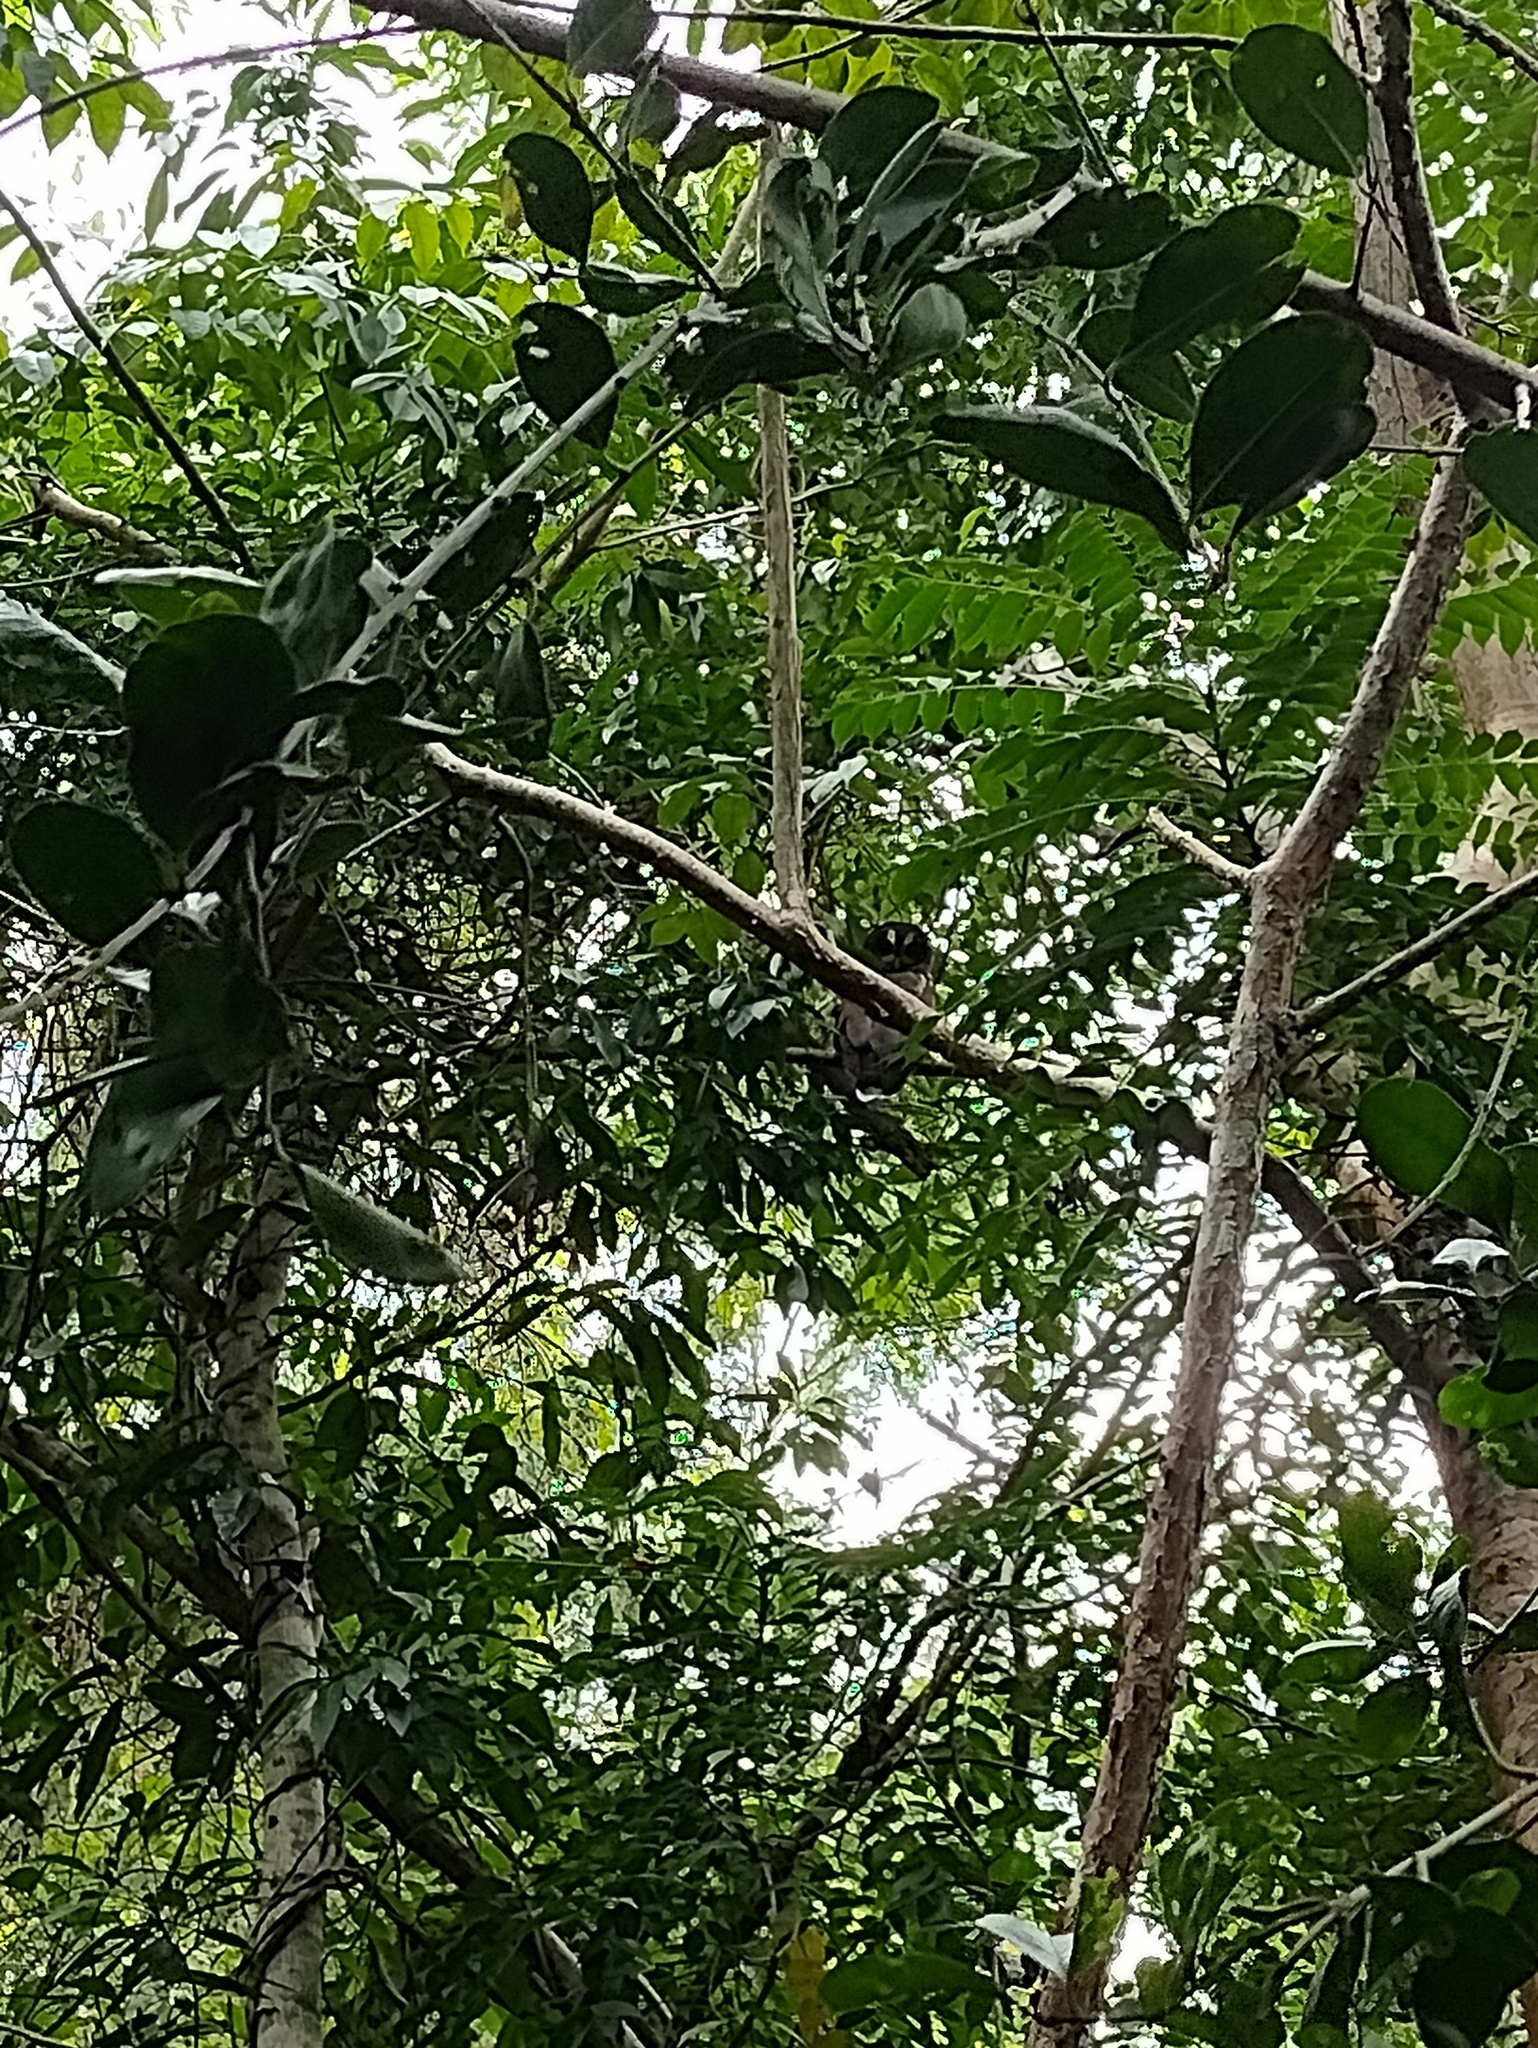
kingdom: Animalia
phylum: Chordata
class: Aves
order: Strigiformes
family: Strigidae
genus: Strix
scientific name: Strix virgata
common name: Mottled owl
